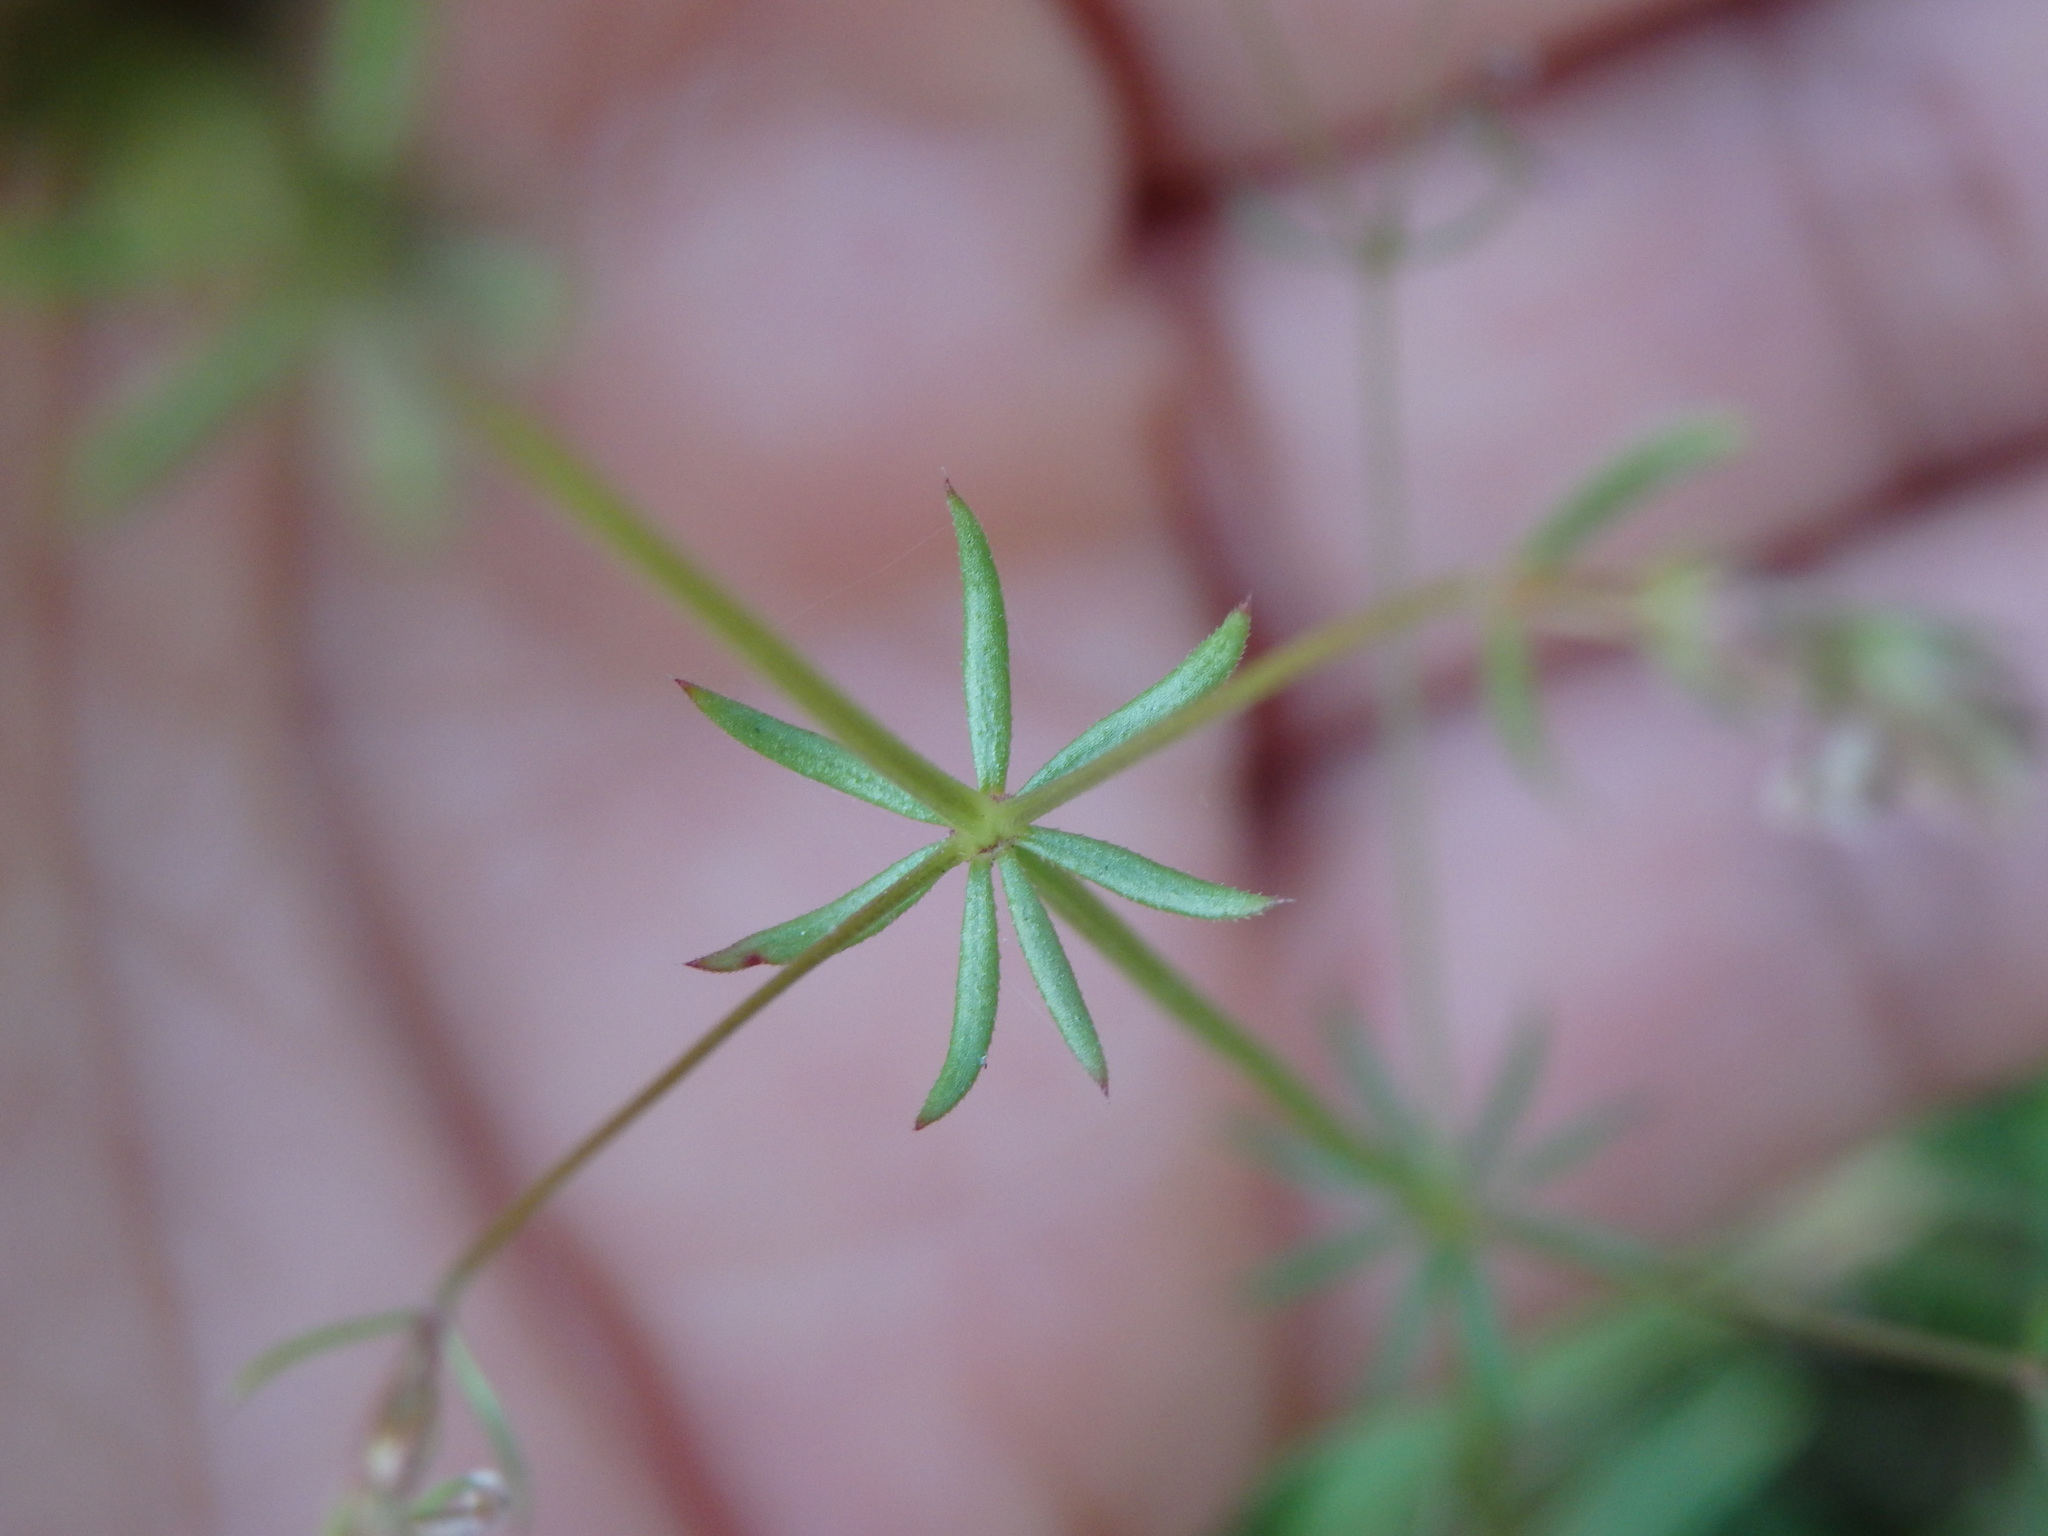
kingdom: Plantae
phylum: Tracheophyta
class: Magnoliopsida
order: Gentianales
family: Rubiaceae
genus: Galium
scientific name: Galium parisiense
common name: Wall bedstraw
